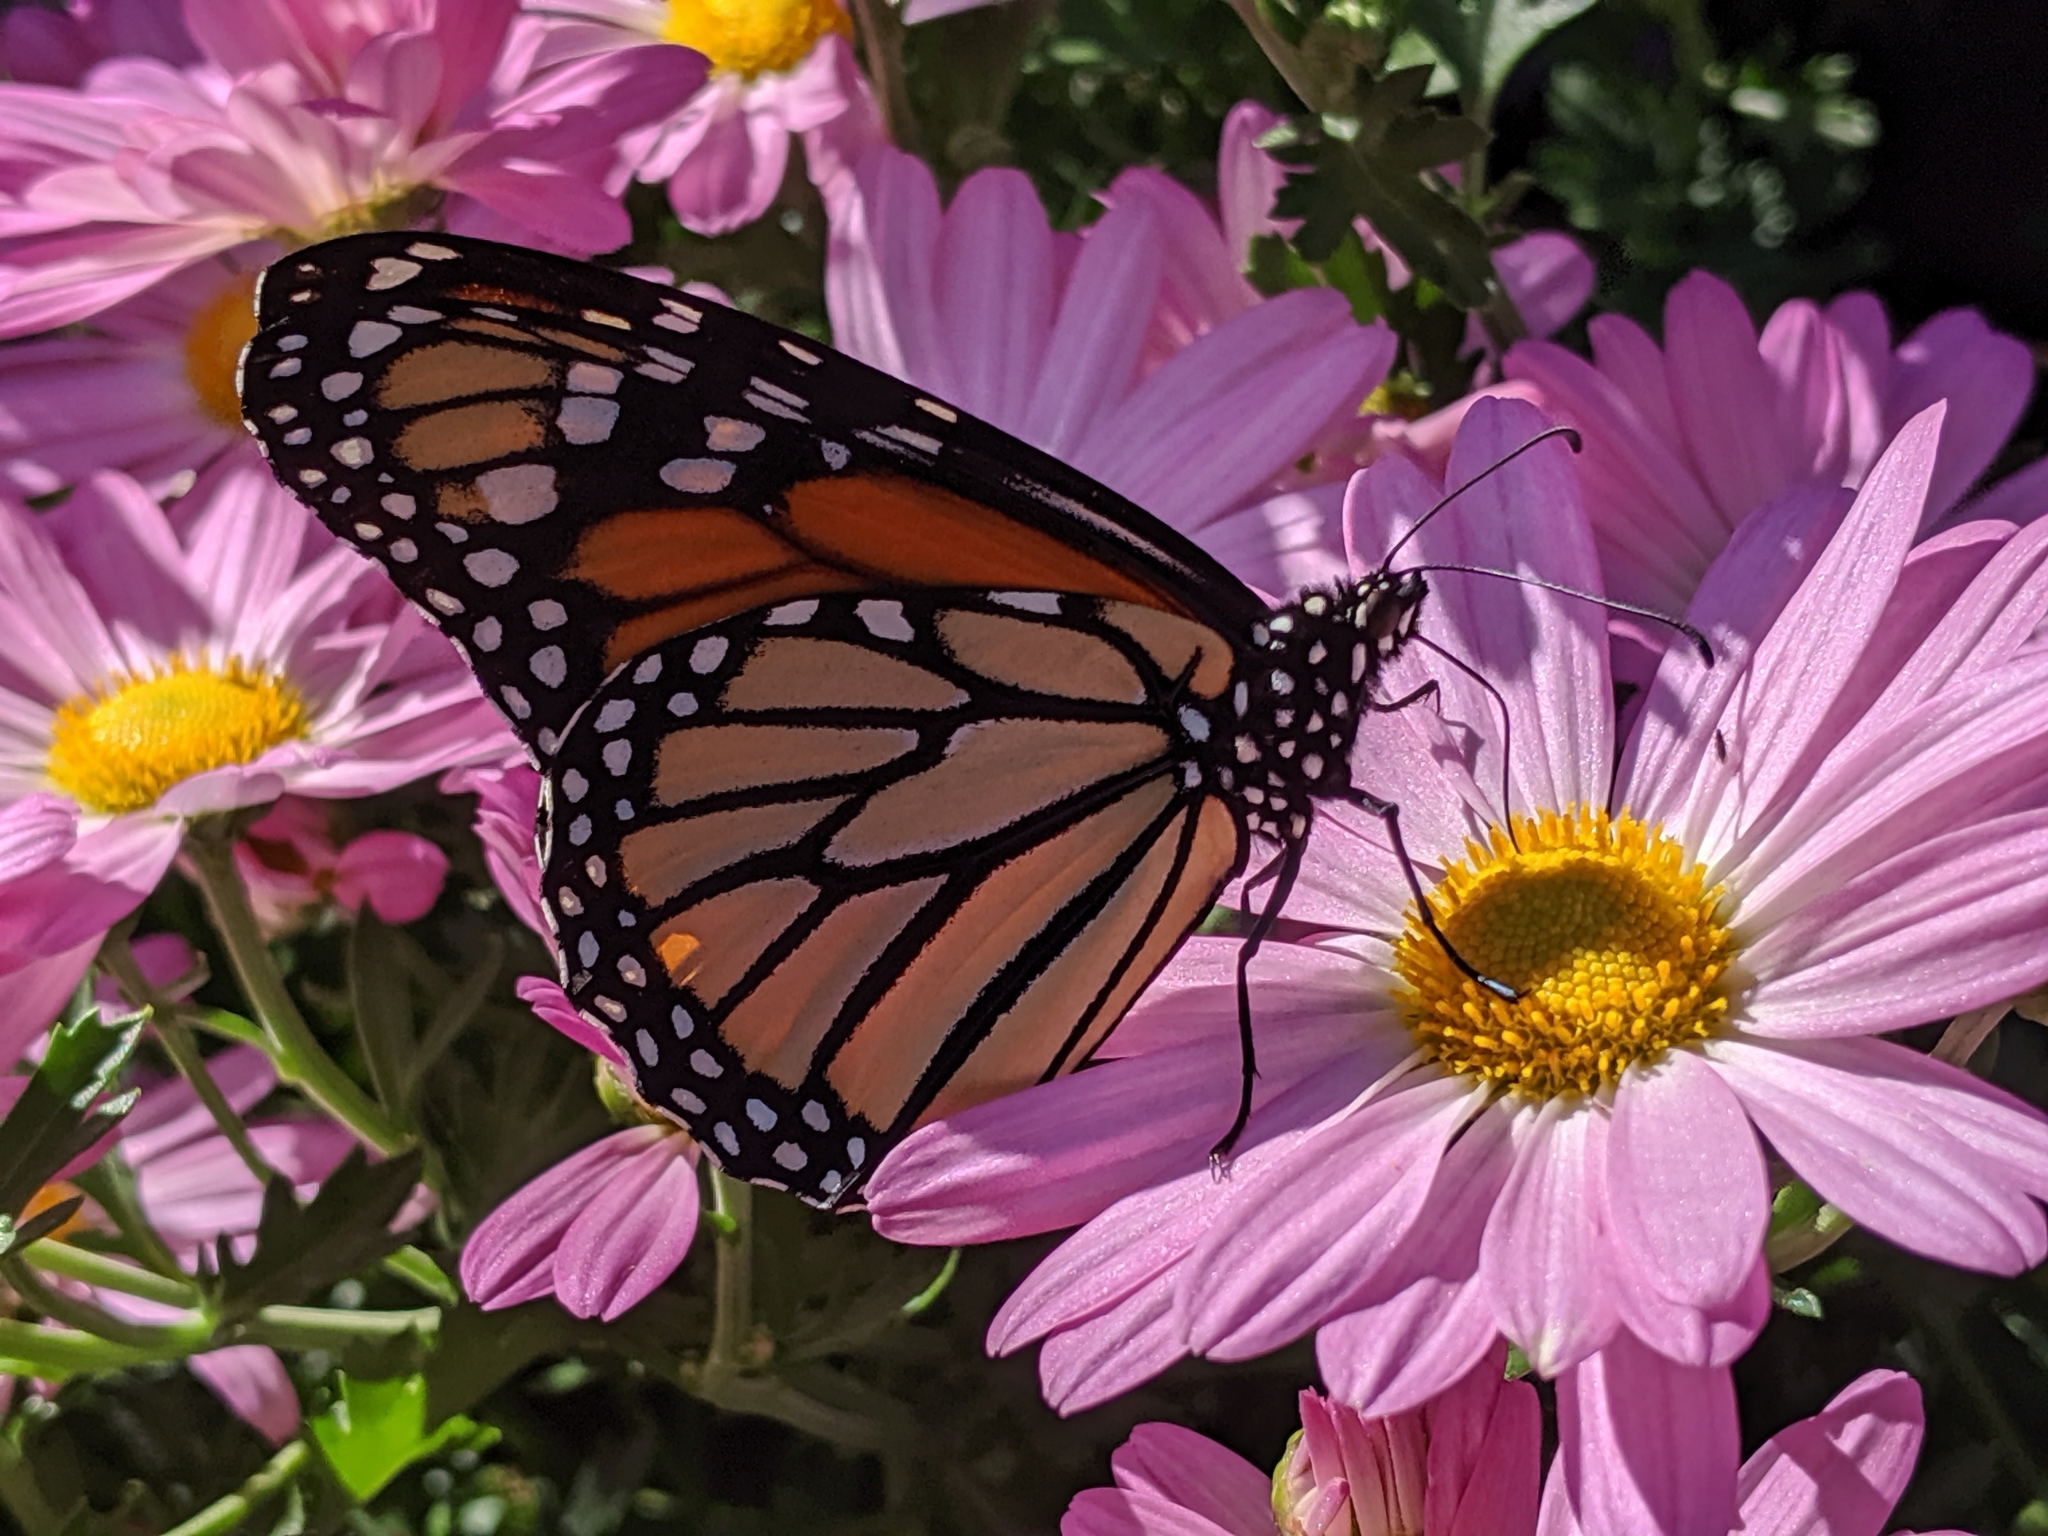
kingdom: Animalia
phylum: Arthropoda
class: Insecta
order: Lepidoptera
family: Nymphalidae
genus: Danaus
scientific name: Danaus plexippus
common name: Monarch
